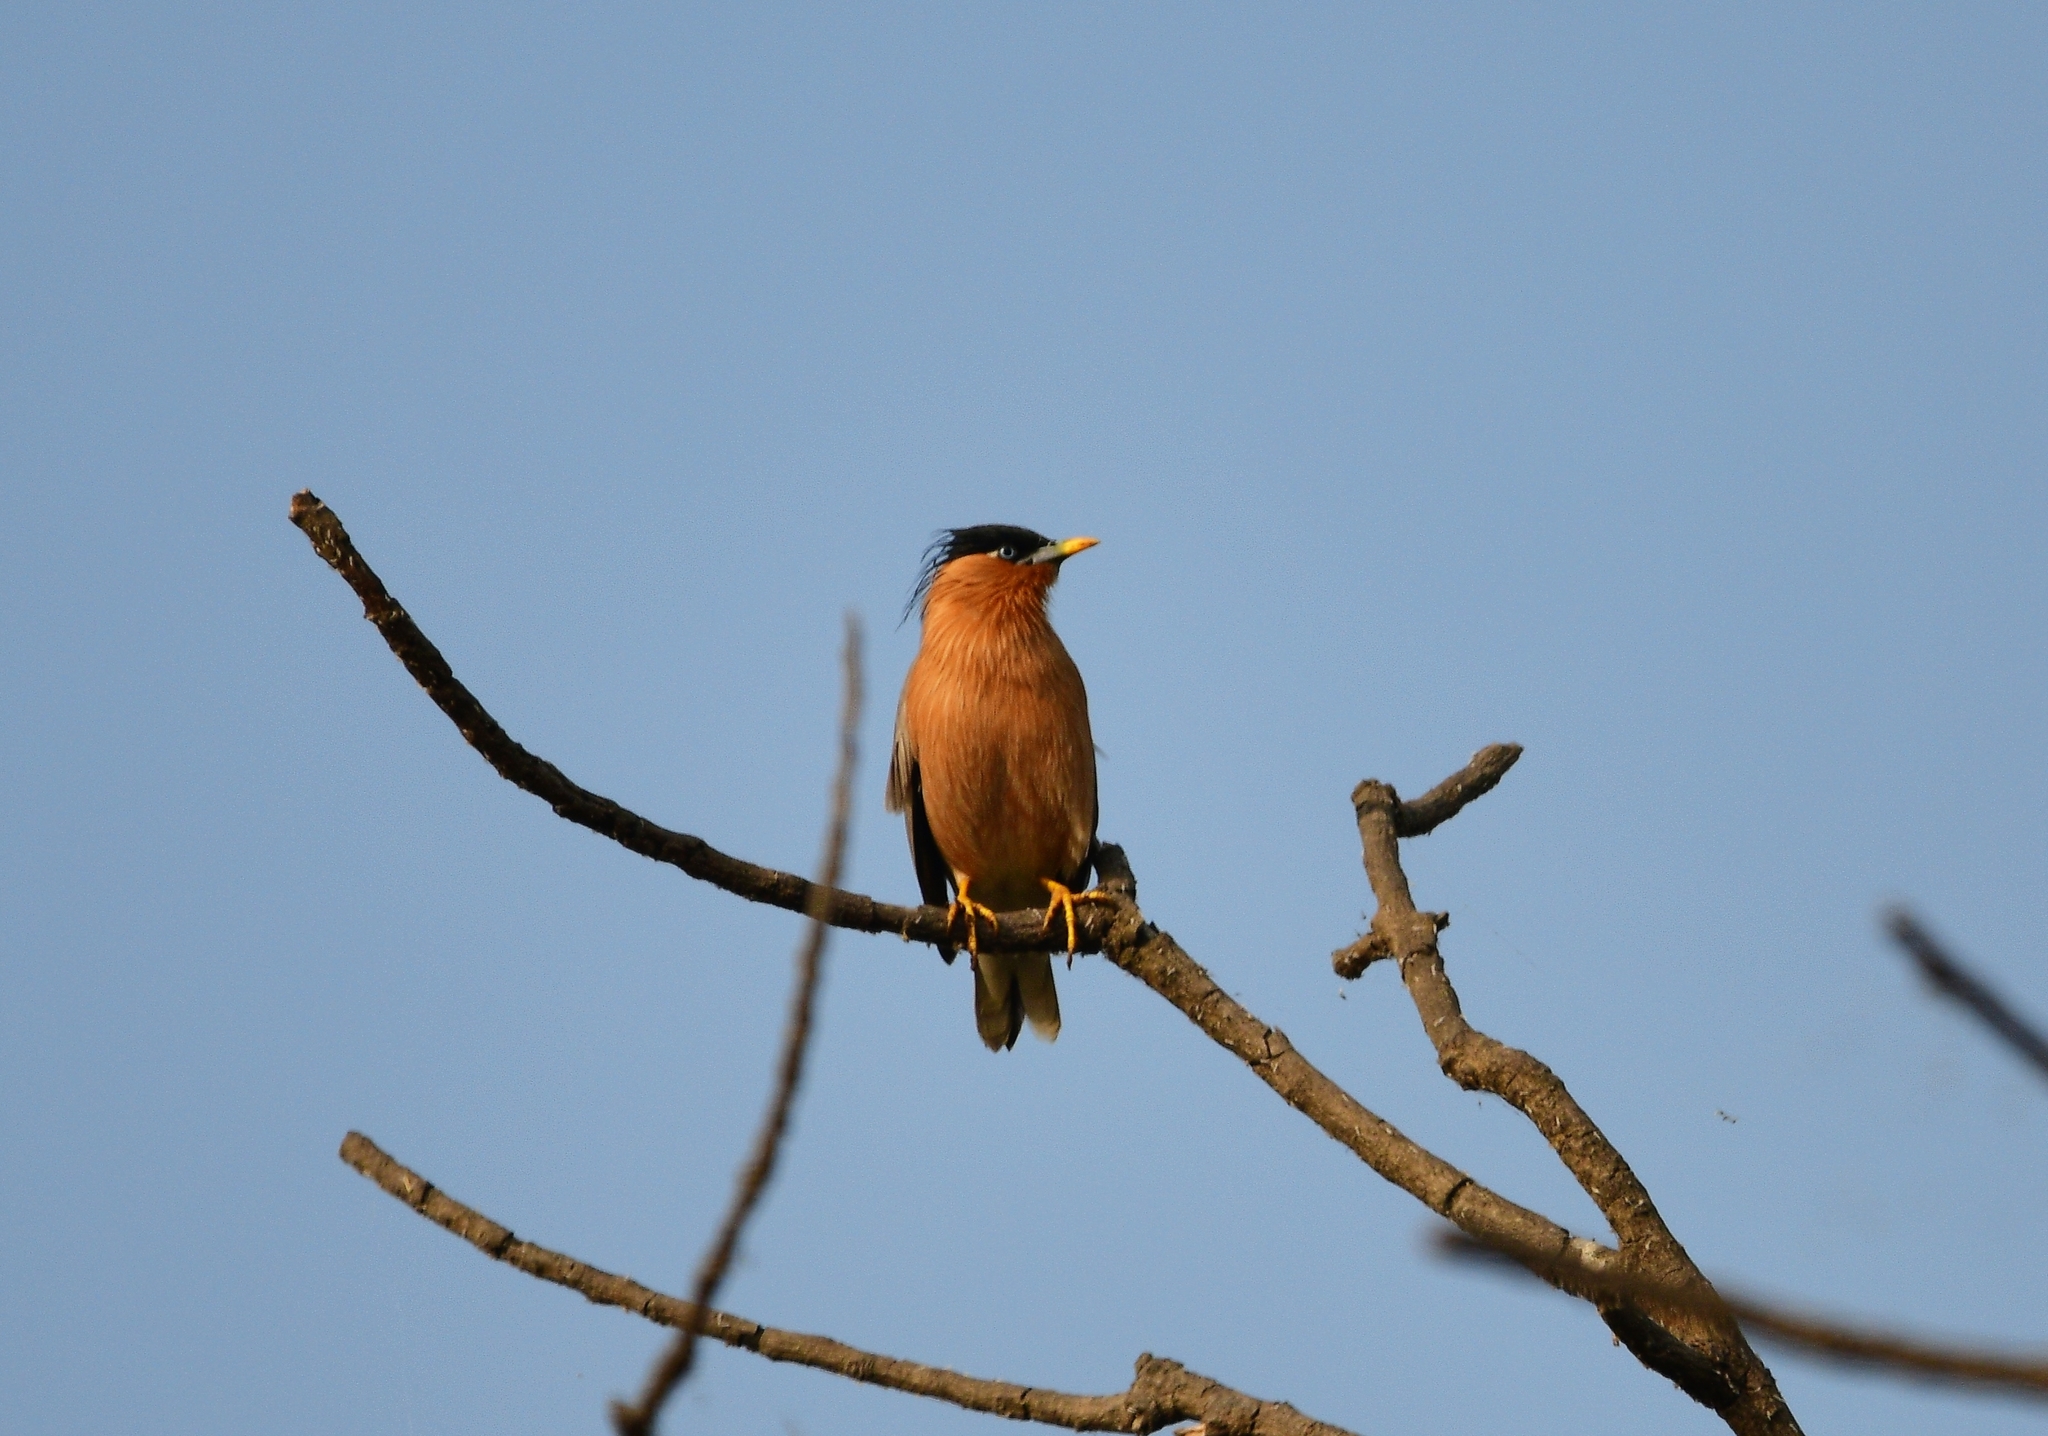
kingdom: Animalia
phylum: Chordata
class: Aves
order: Passeriformes
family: Sturnidae
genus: Sturnia
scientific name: Sturnia pagodarum
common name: Brahminy starling
